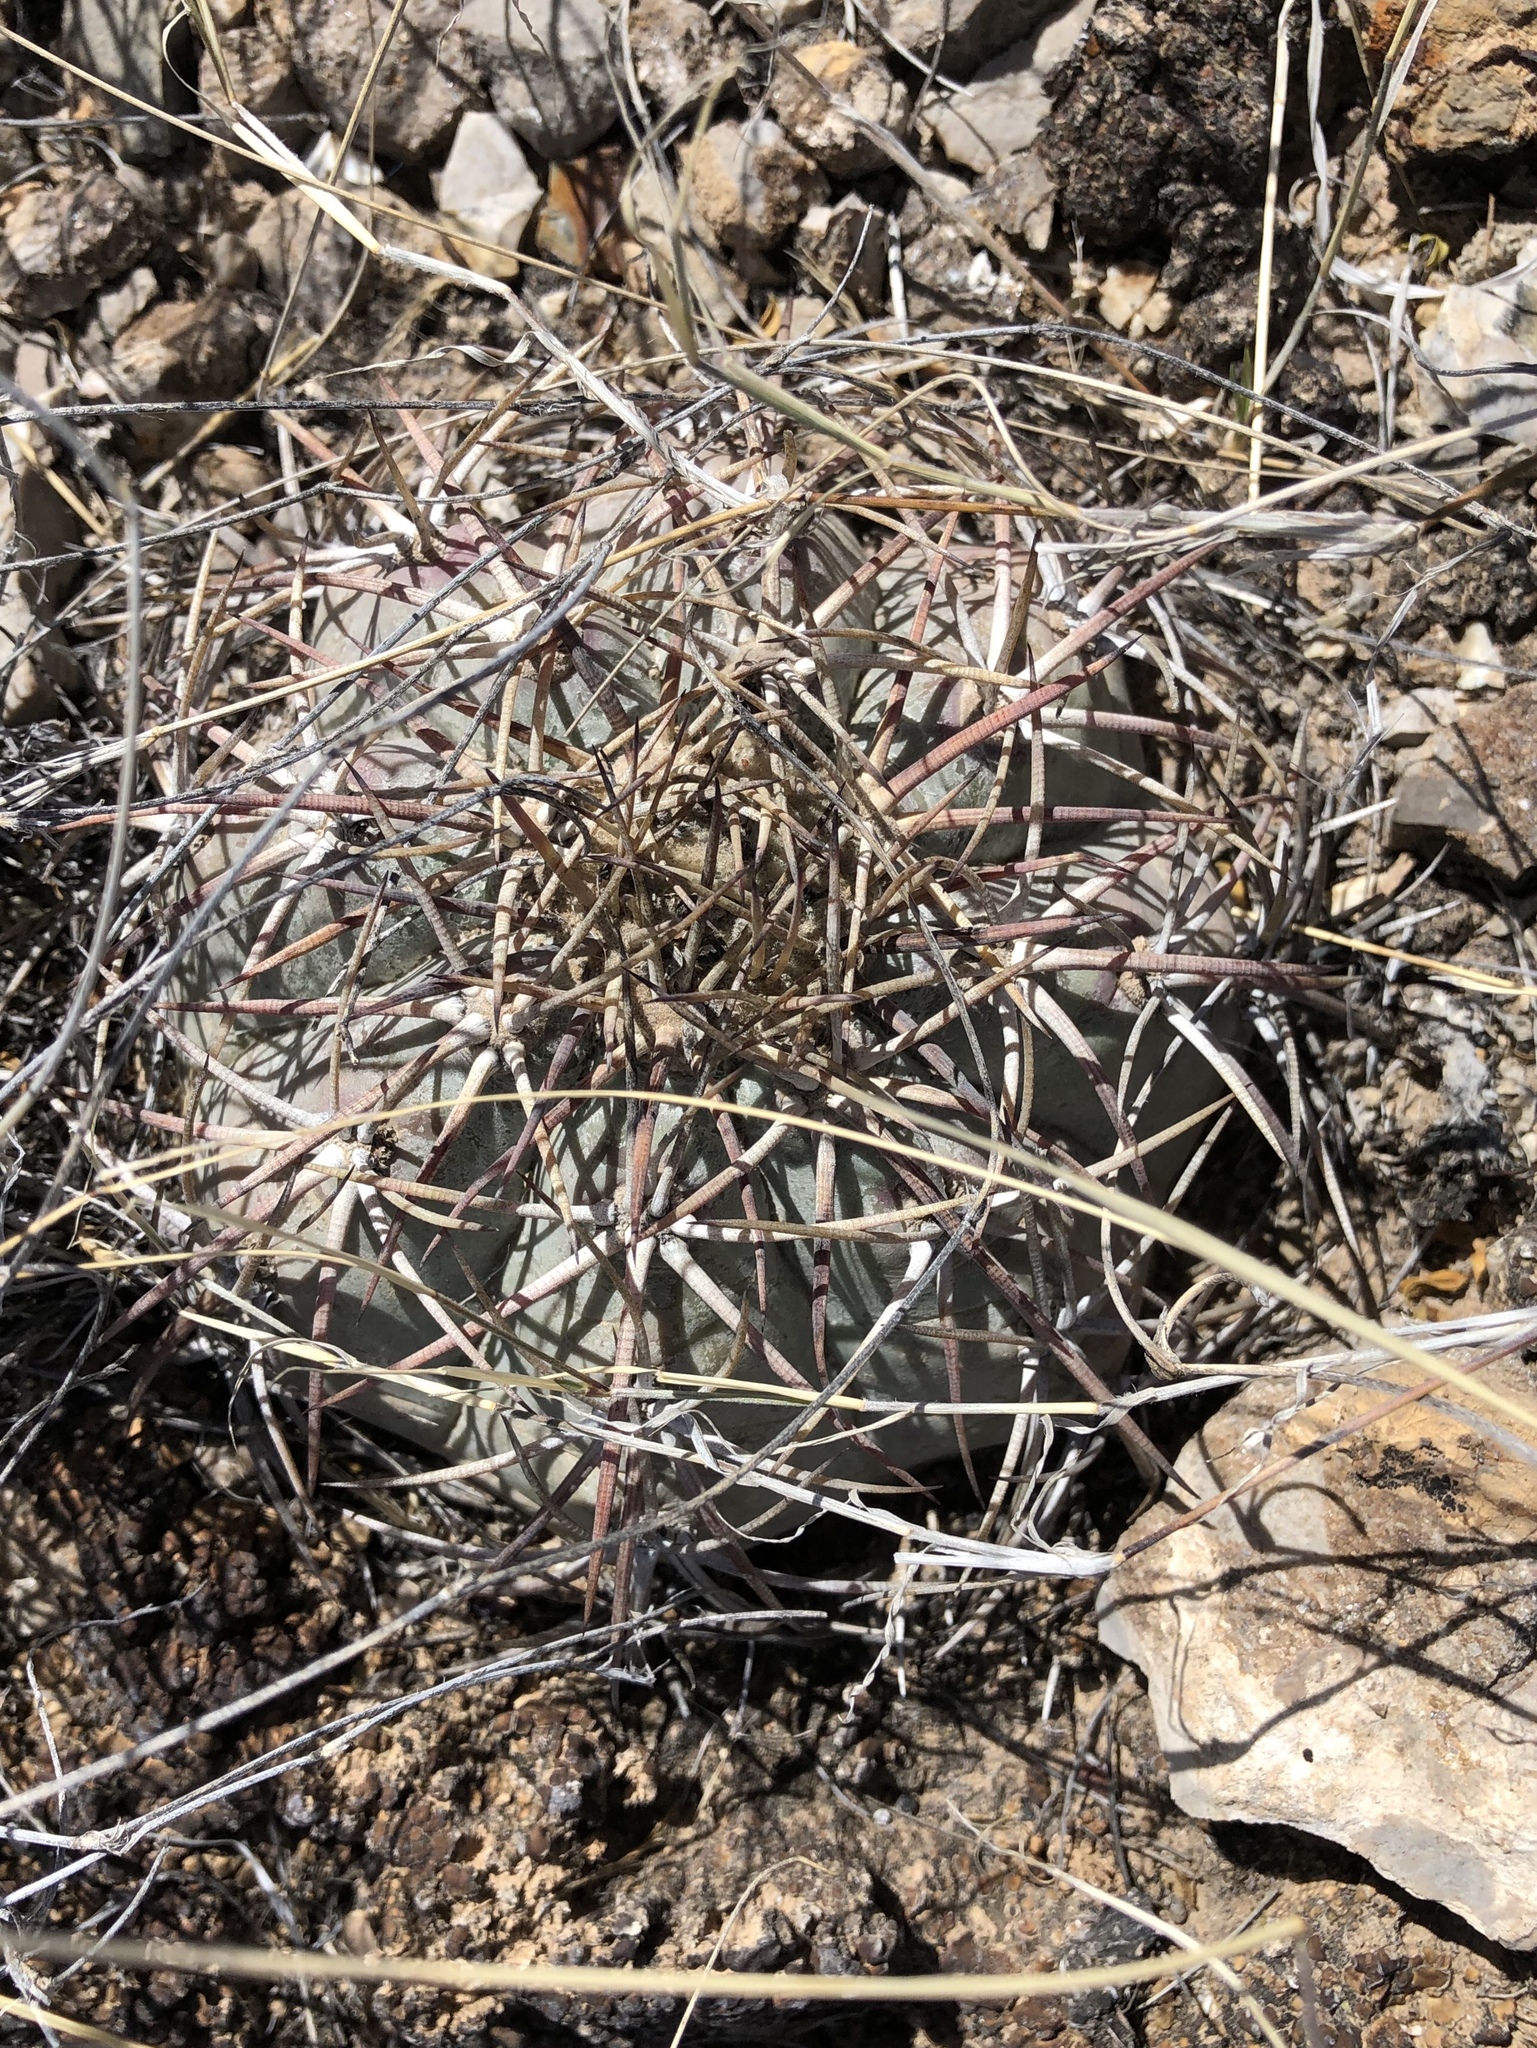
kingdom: Plantae
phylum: Tracheophyta
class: Magnoliopsida
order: Caryophyllales
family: Cactaceae
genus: Echinocactus
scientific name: Echinocactus horizonthalonius
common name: Devilshead
